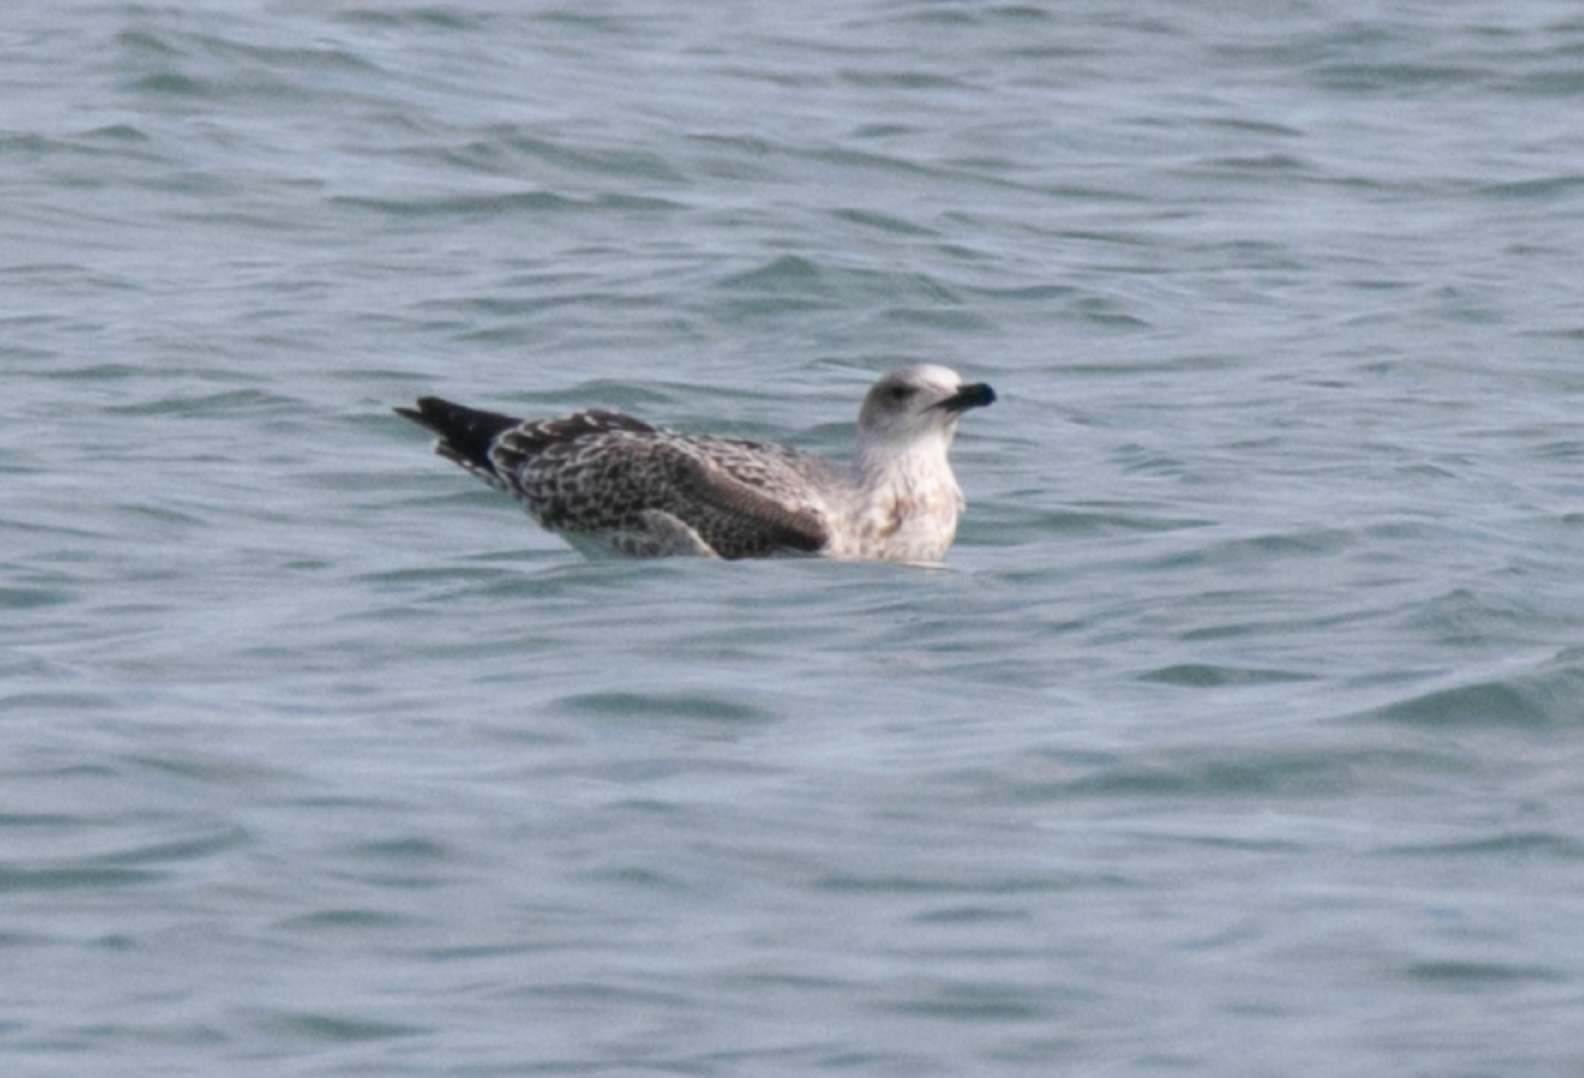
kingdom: Animalia
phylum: Chordata
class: Aves
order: Charadriiformes
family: Laridae
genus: Larus
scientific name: Larus michahellis
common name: Yellow-legged gull
